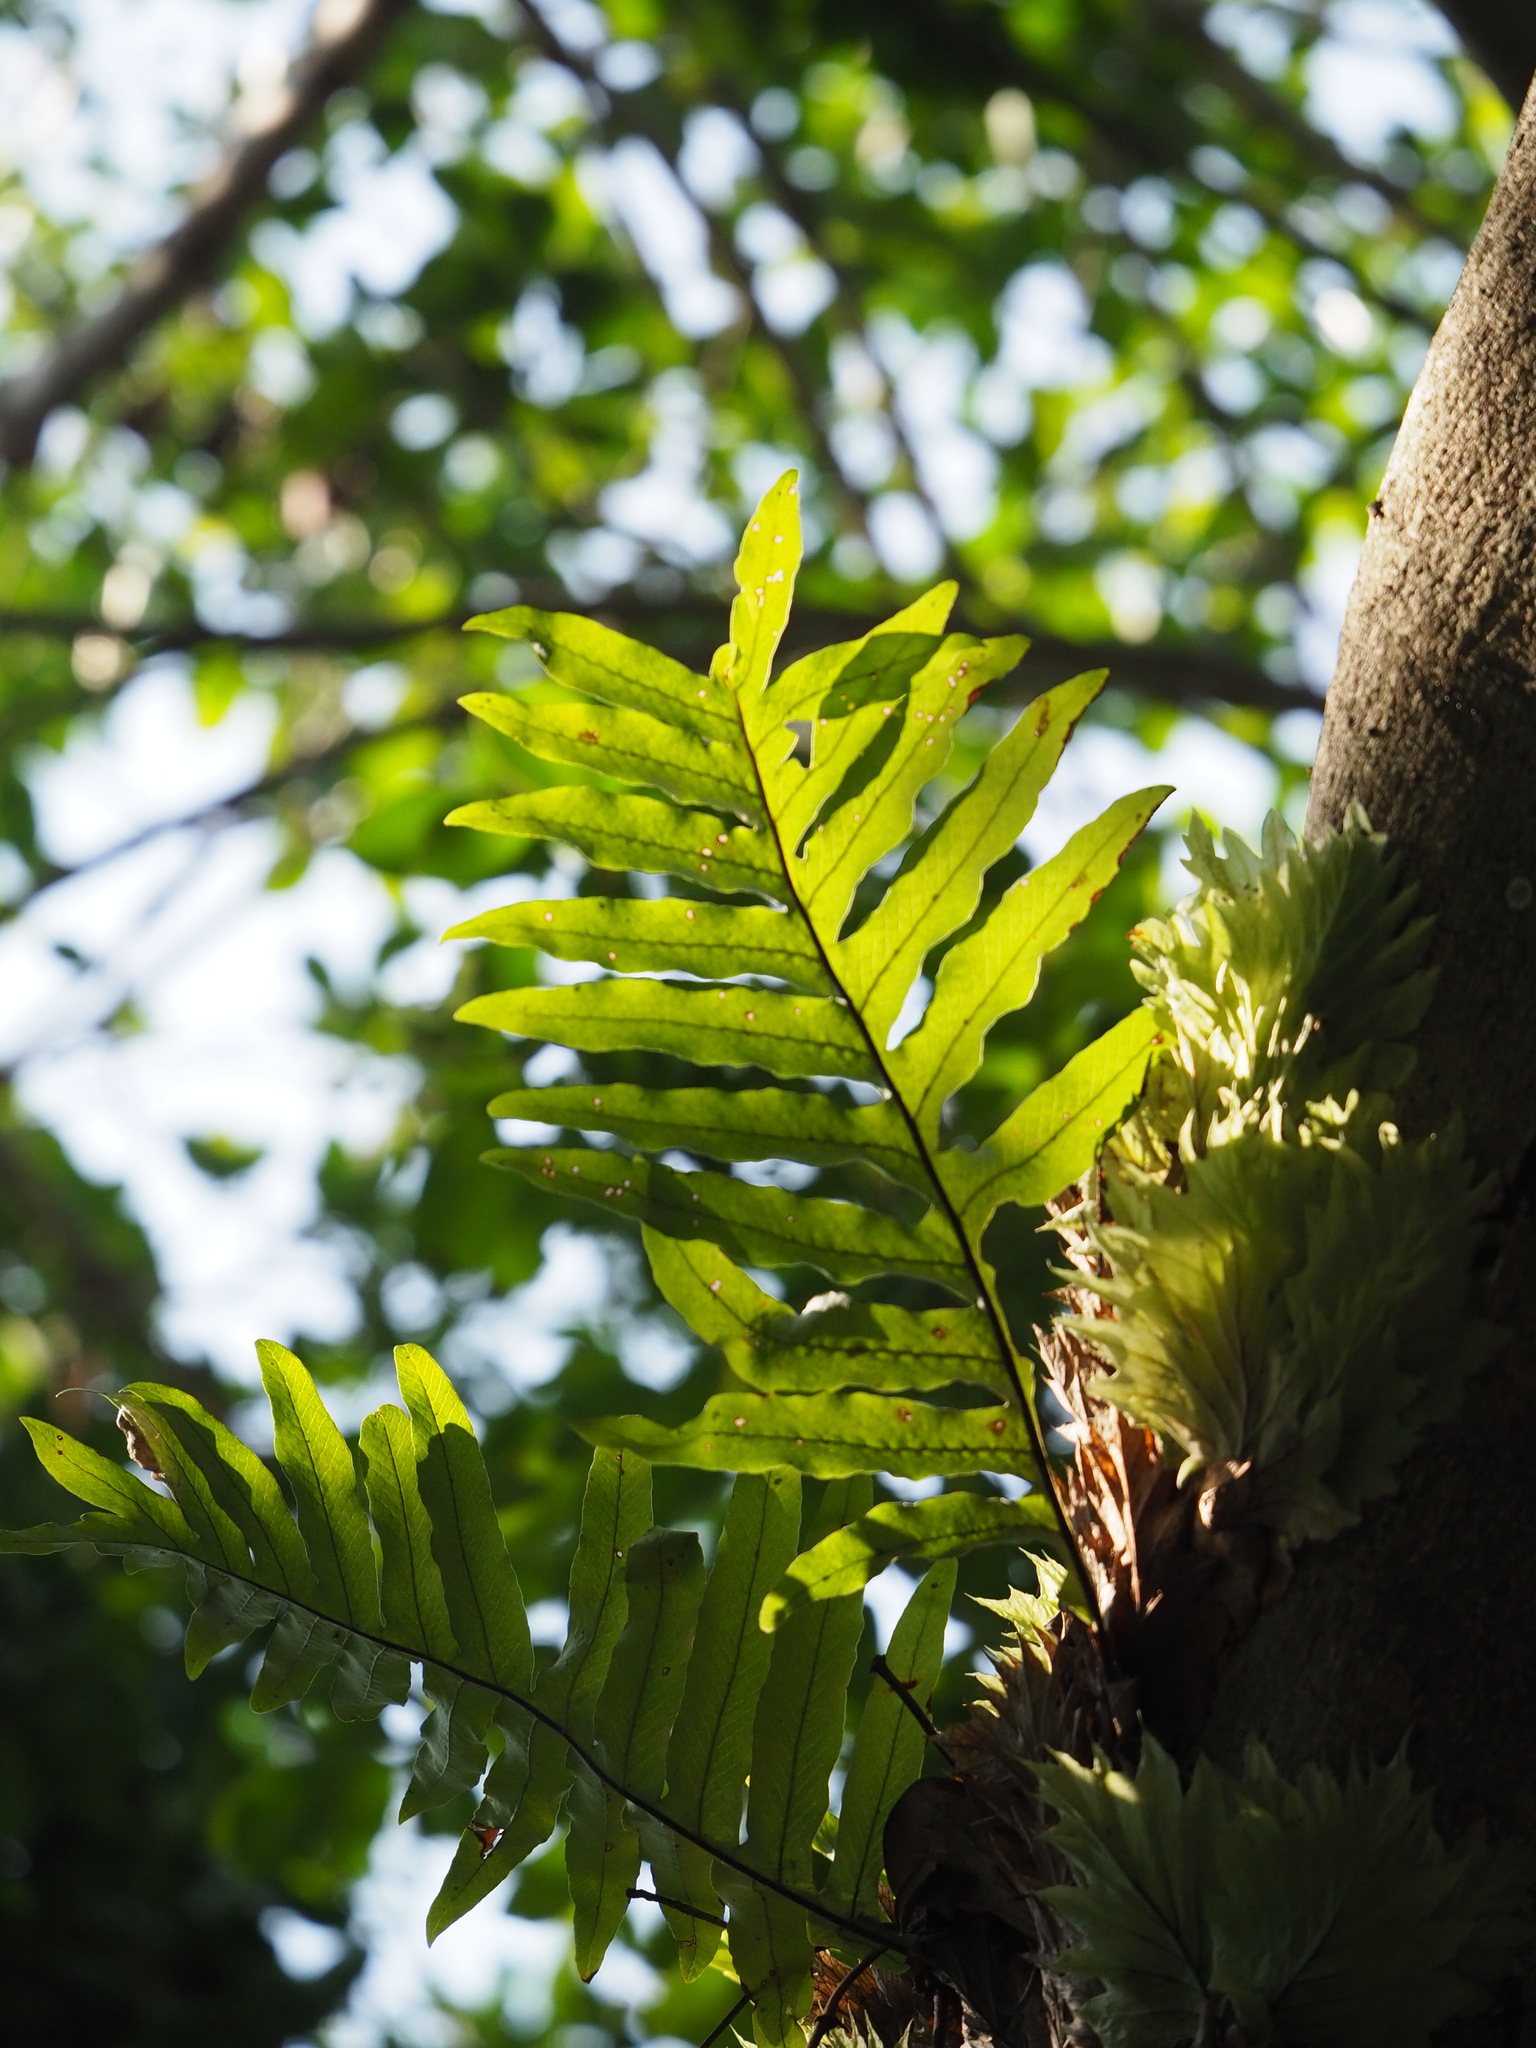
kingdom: Plantae
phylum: Tracheophyta
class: Polypodiopsida
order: Polypodiales
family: Polypodiaceae
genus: Drynaria
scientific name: Drynaria roosii
